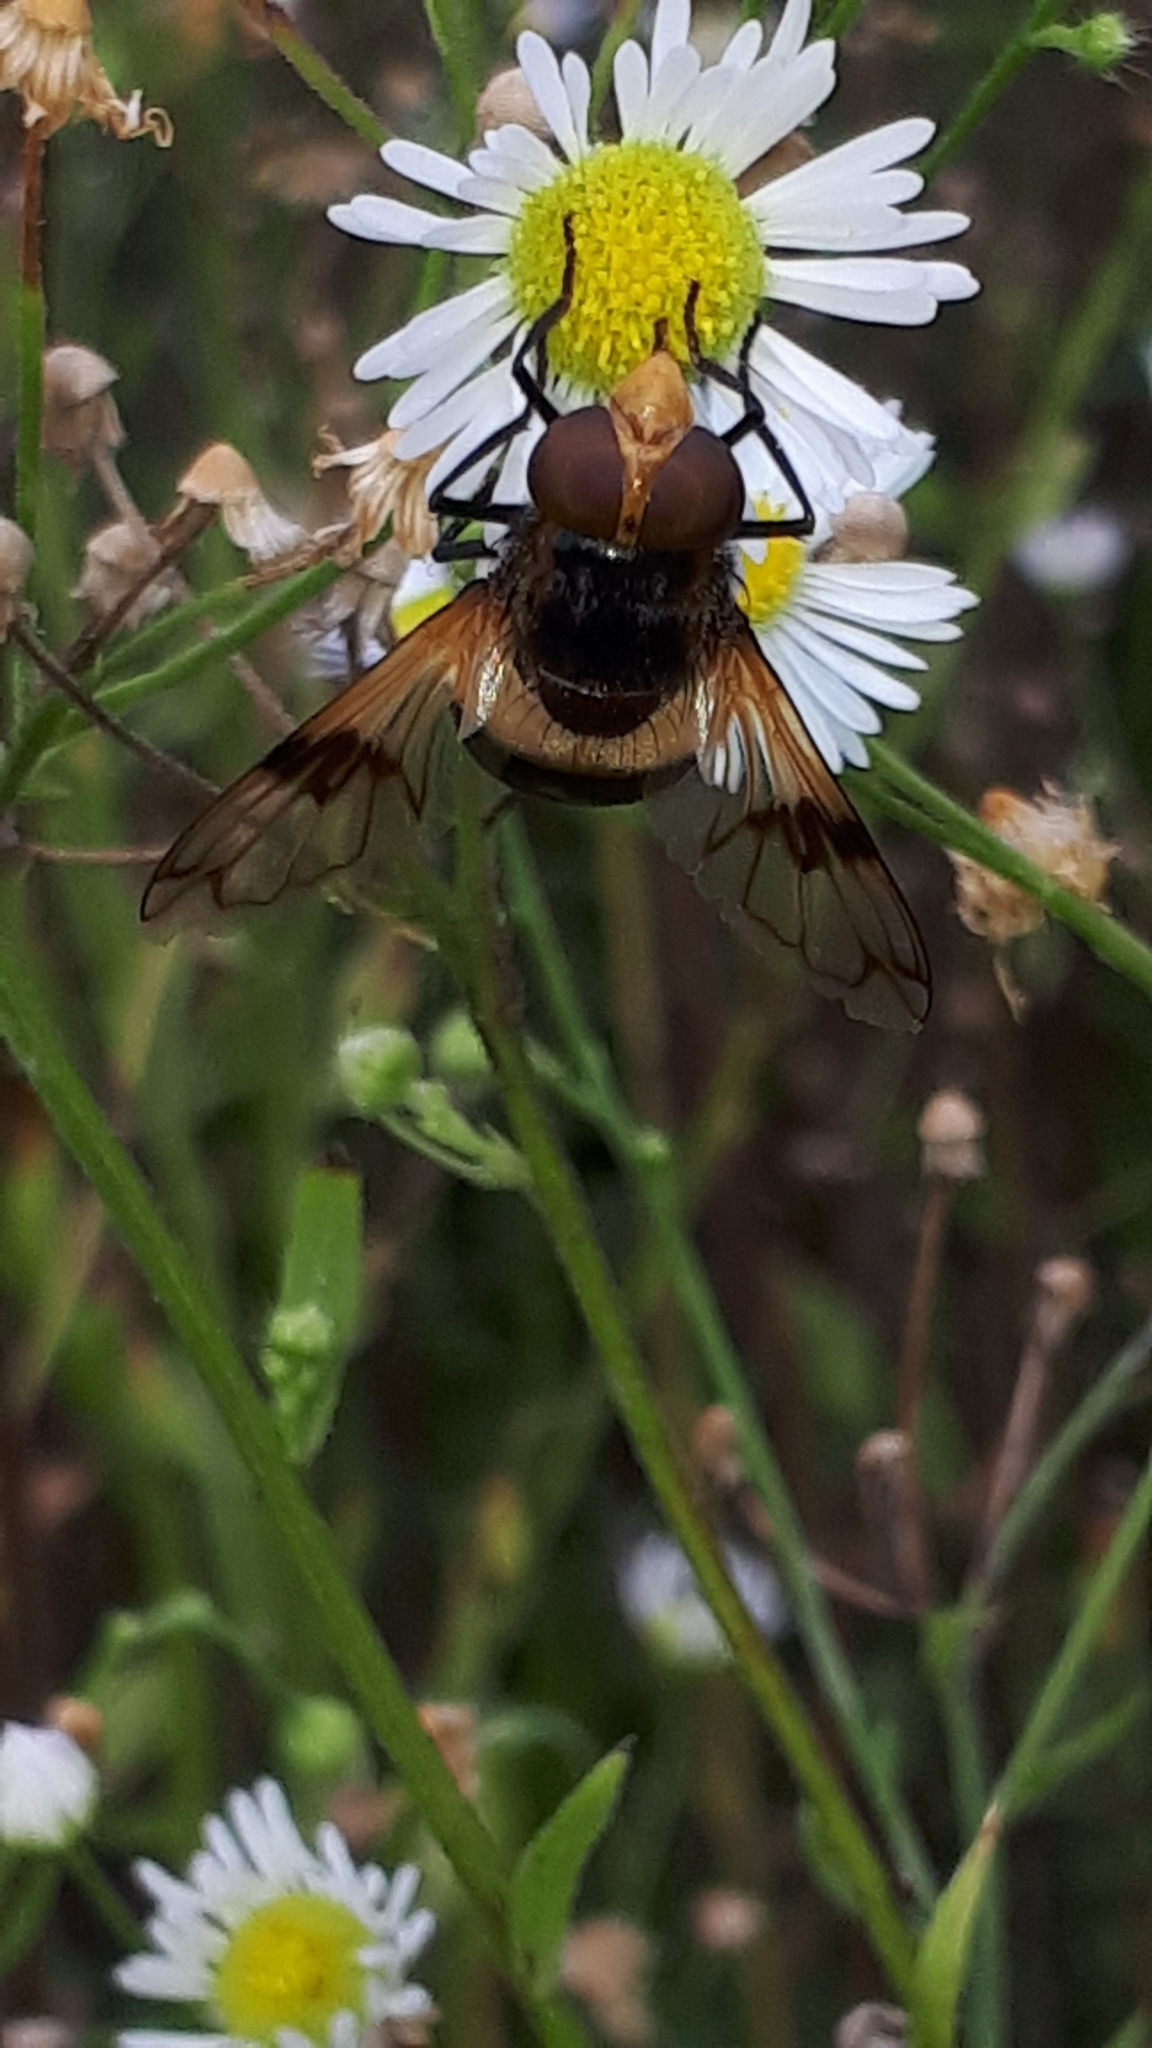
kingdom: Animalia
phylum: Arthropoda
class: Insecta
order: Diptera
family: Syrphidae
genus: Volucella
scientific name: Volucella pellucens
